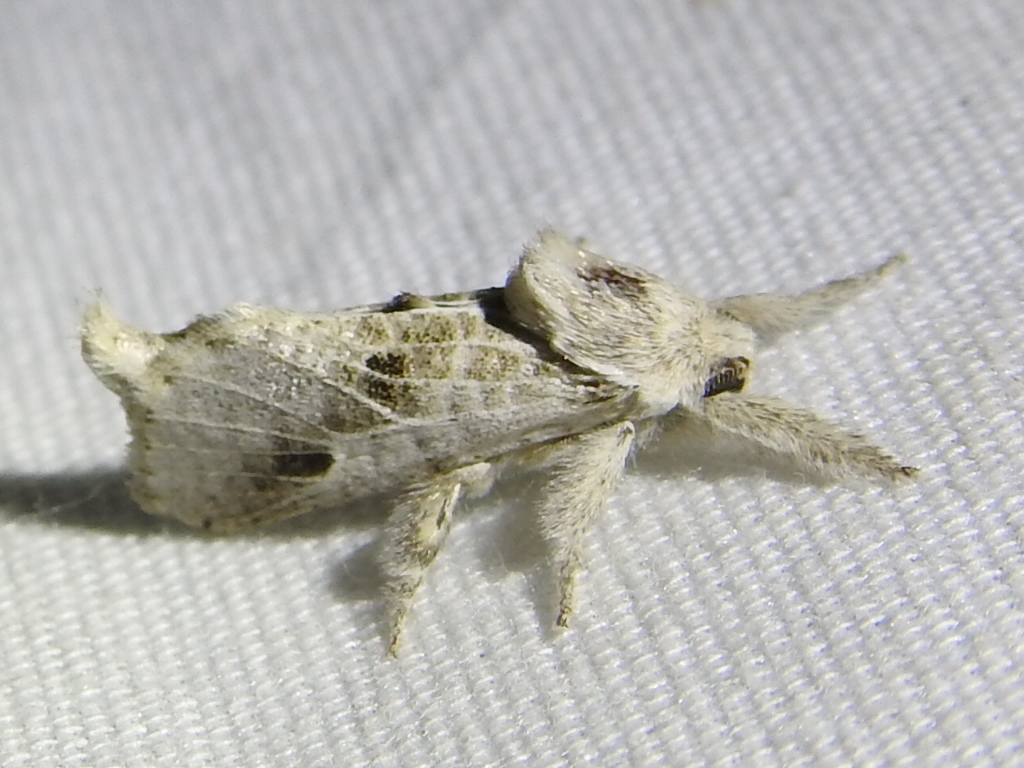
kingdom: Animalia
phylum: Arthropoda
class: Insecta
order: Lepidoptera
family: Cossidae
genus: Givira
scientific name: Givira
